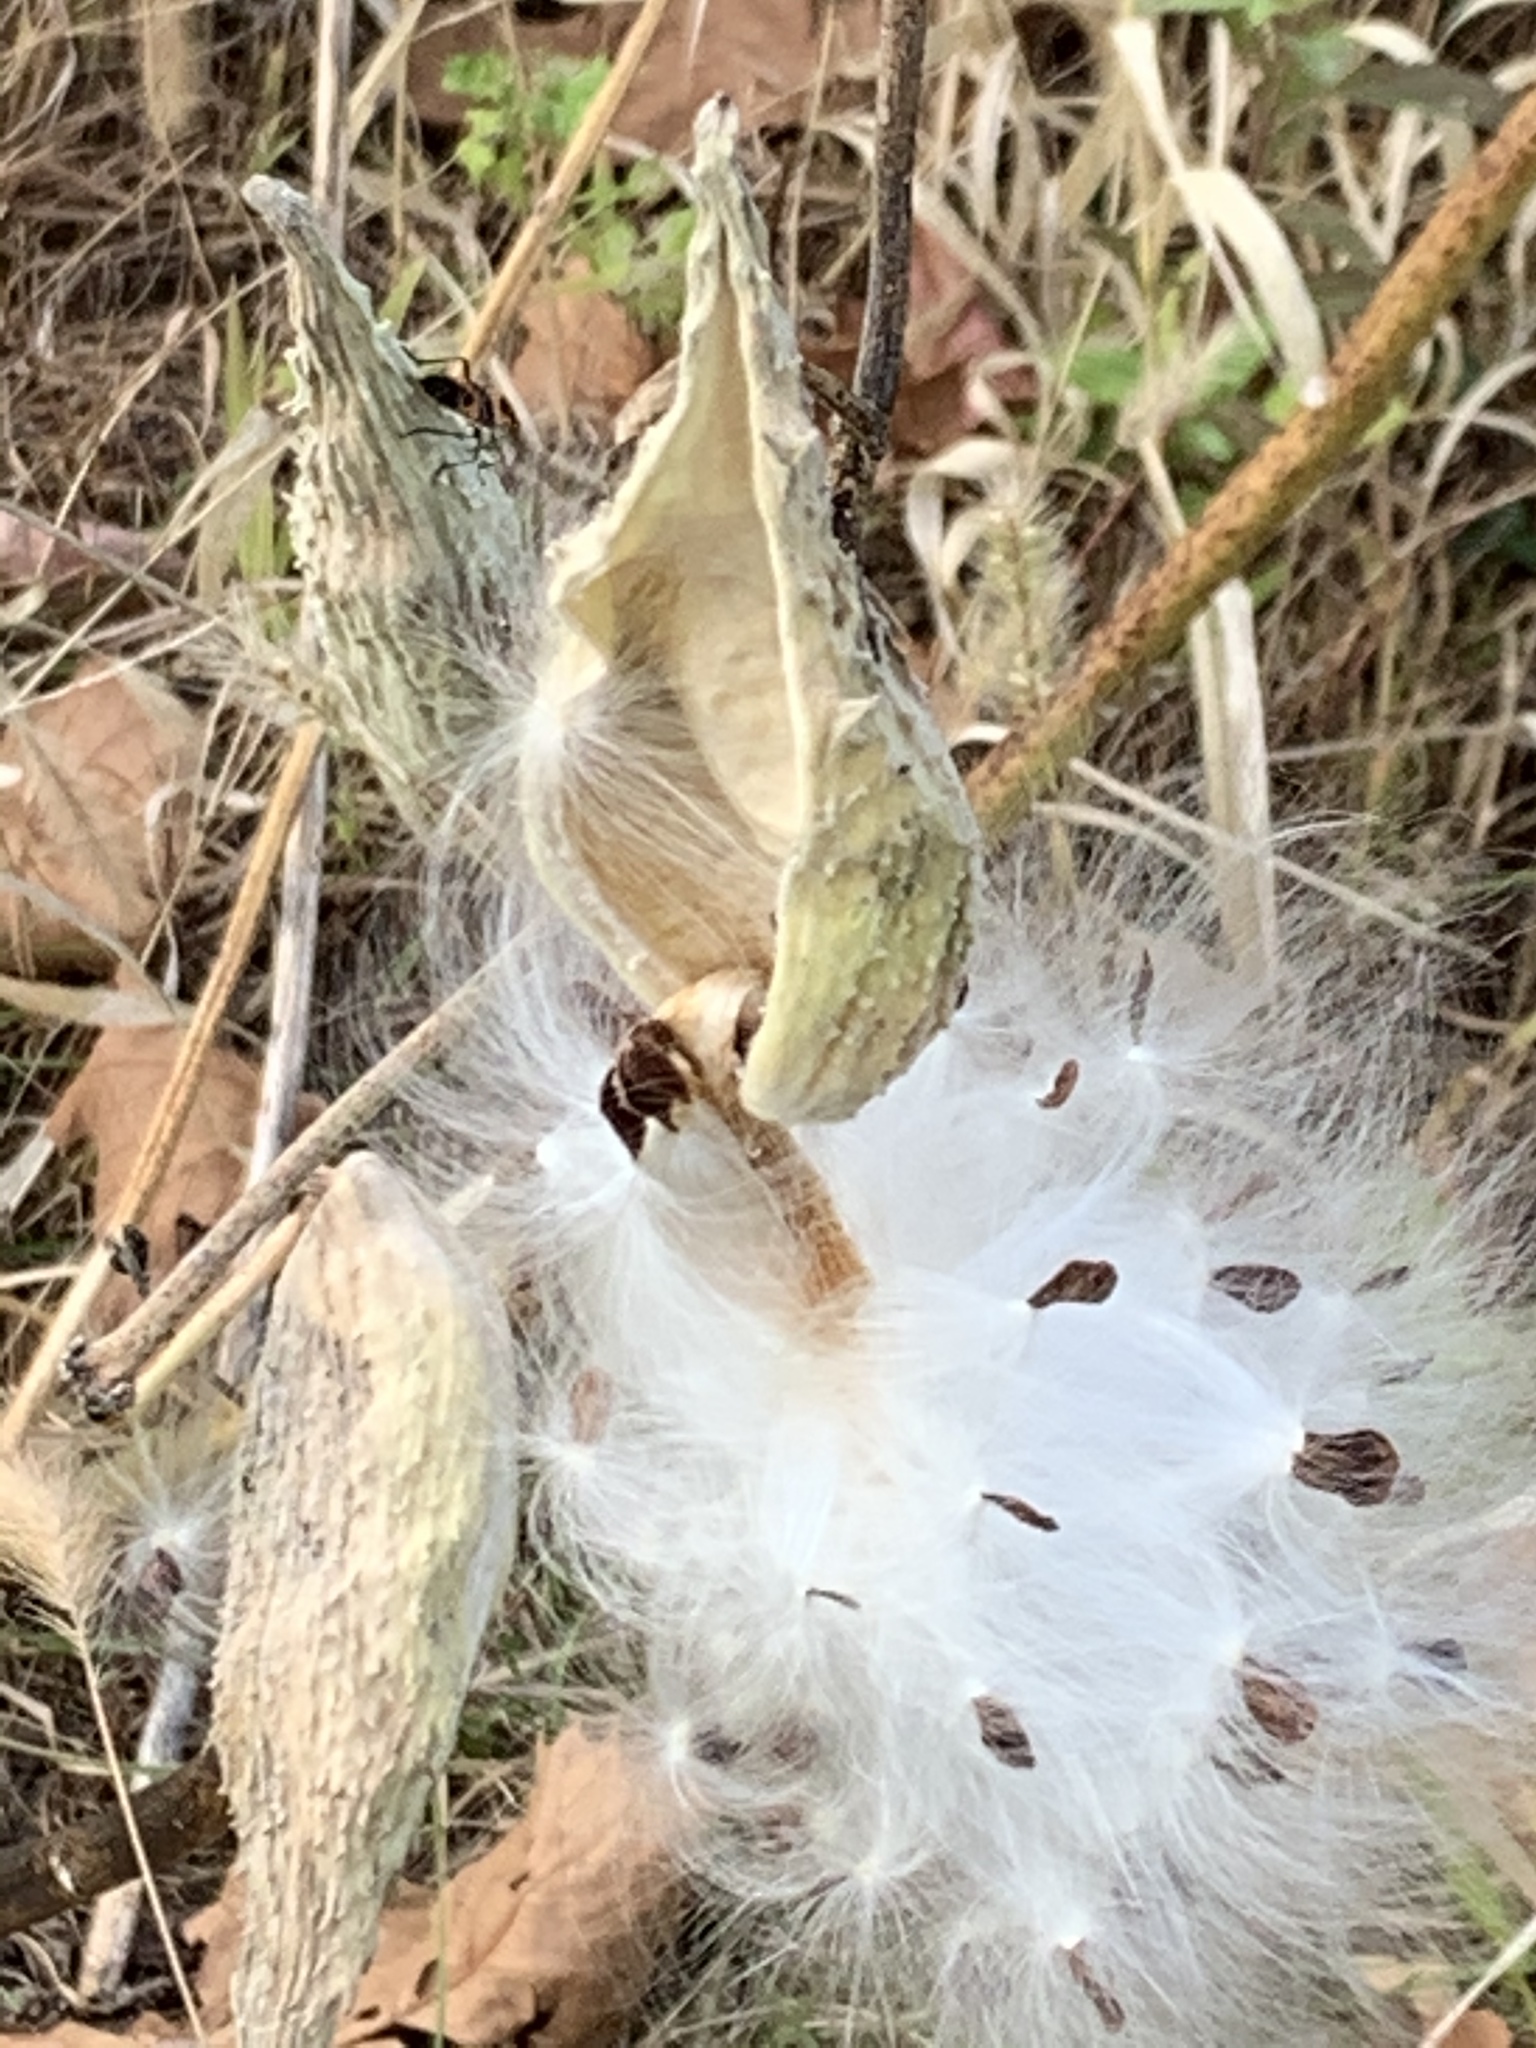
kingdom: Plantae
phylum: Tracheophyta
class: Magnoliopsida
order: Gentianales
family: Apocynaceae
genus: Asclepias
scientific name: Asclepias syriaca
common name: Common milkweed
